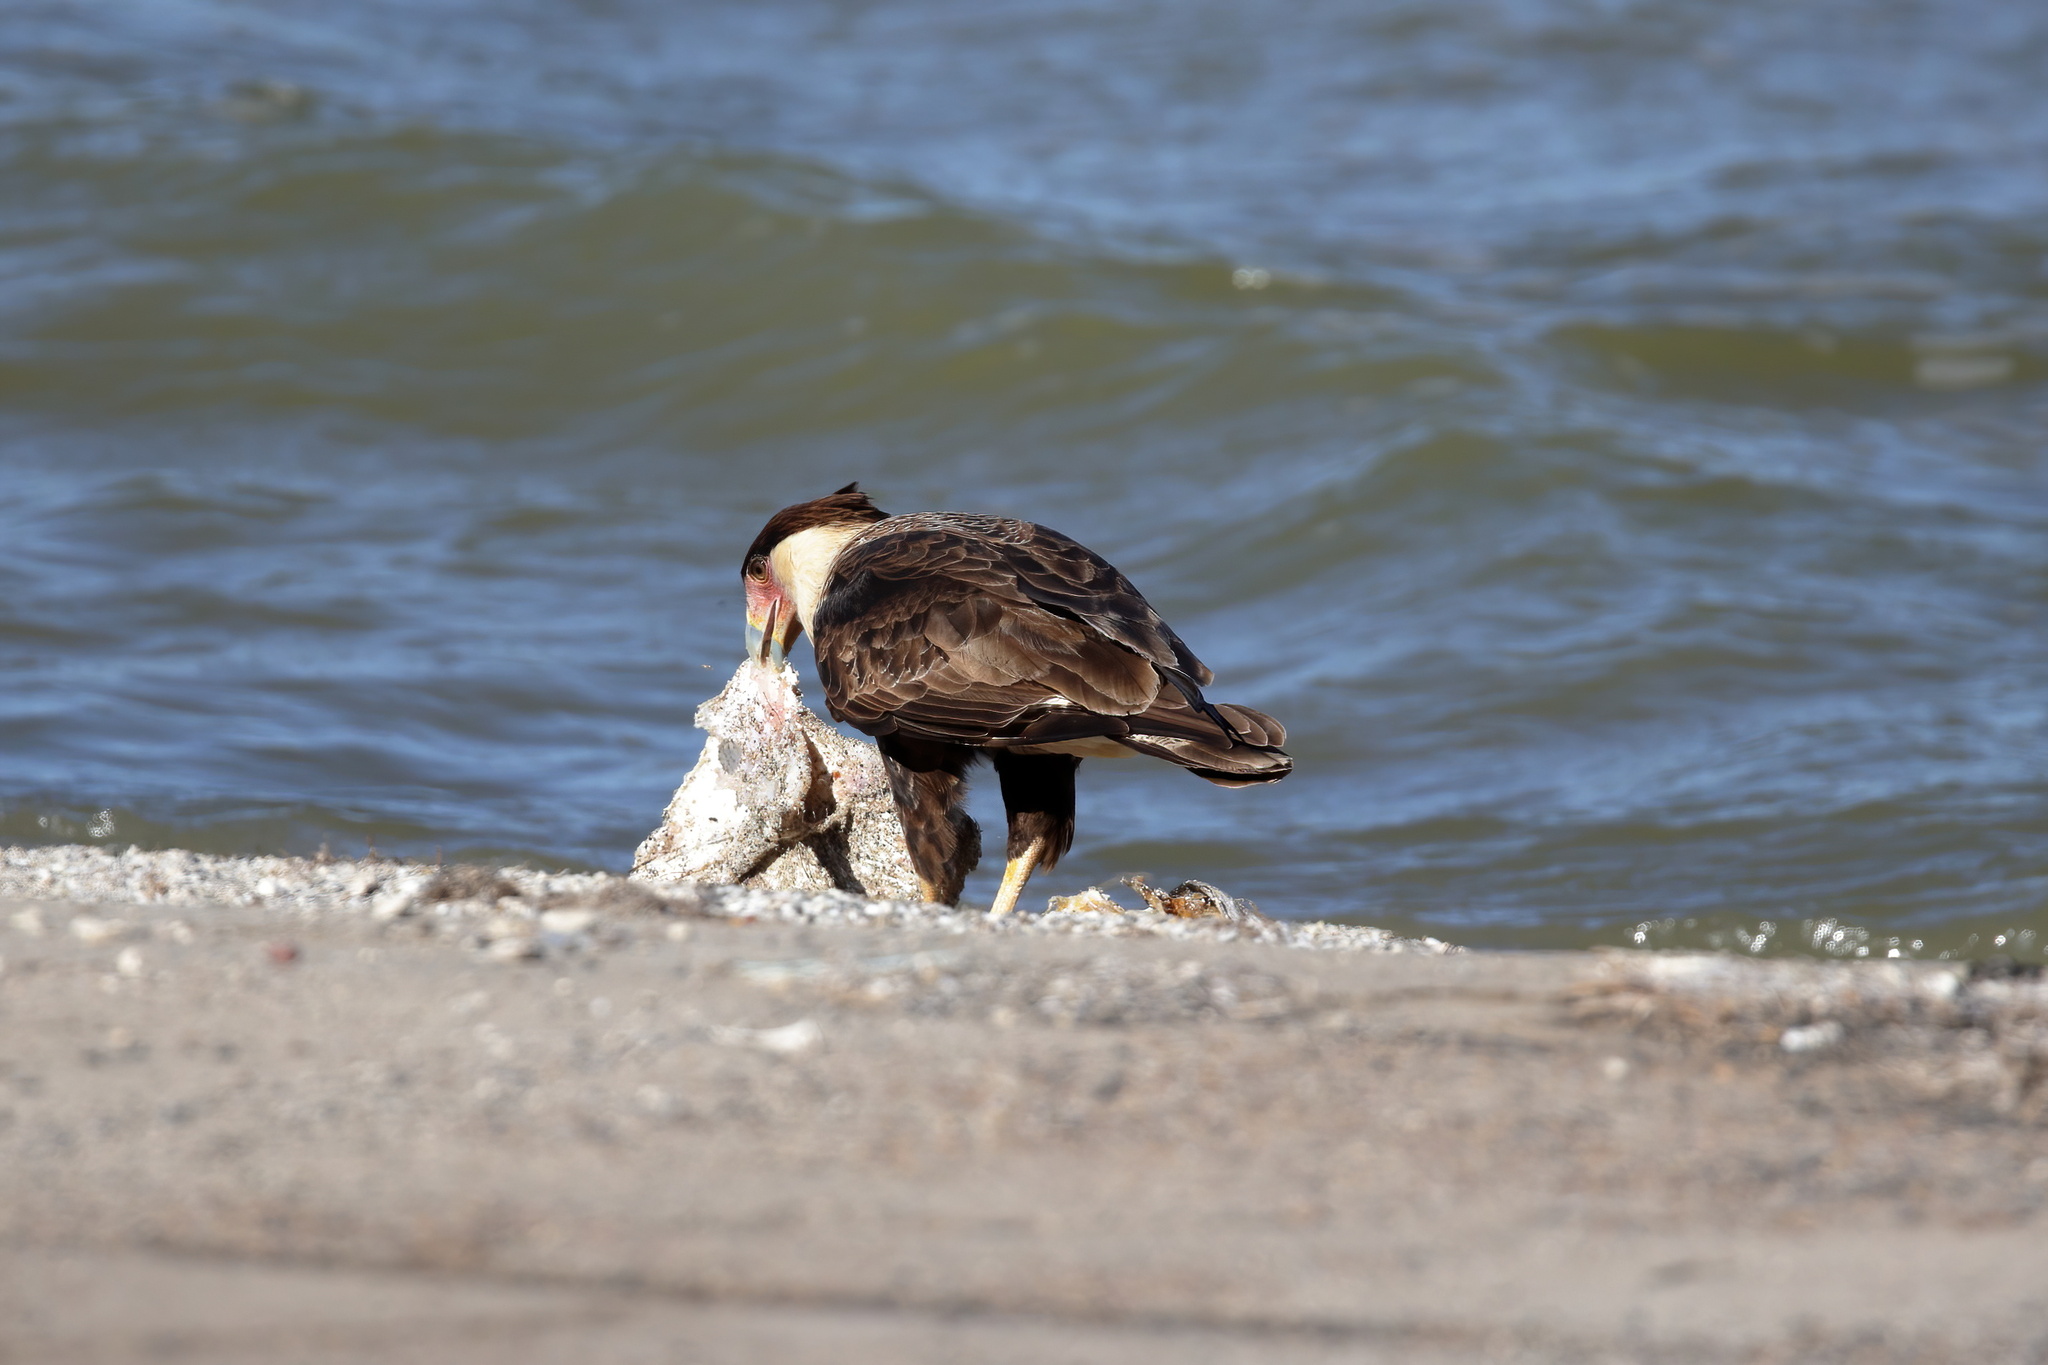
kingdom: Animalia
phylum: Chordata
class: Aves
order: Falconiformes
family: Falconidae
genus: Caracara
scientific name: Caracara plancus
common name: Southern caracara
